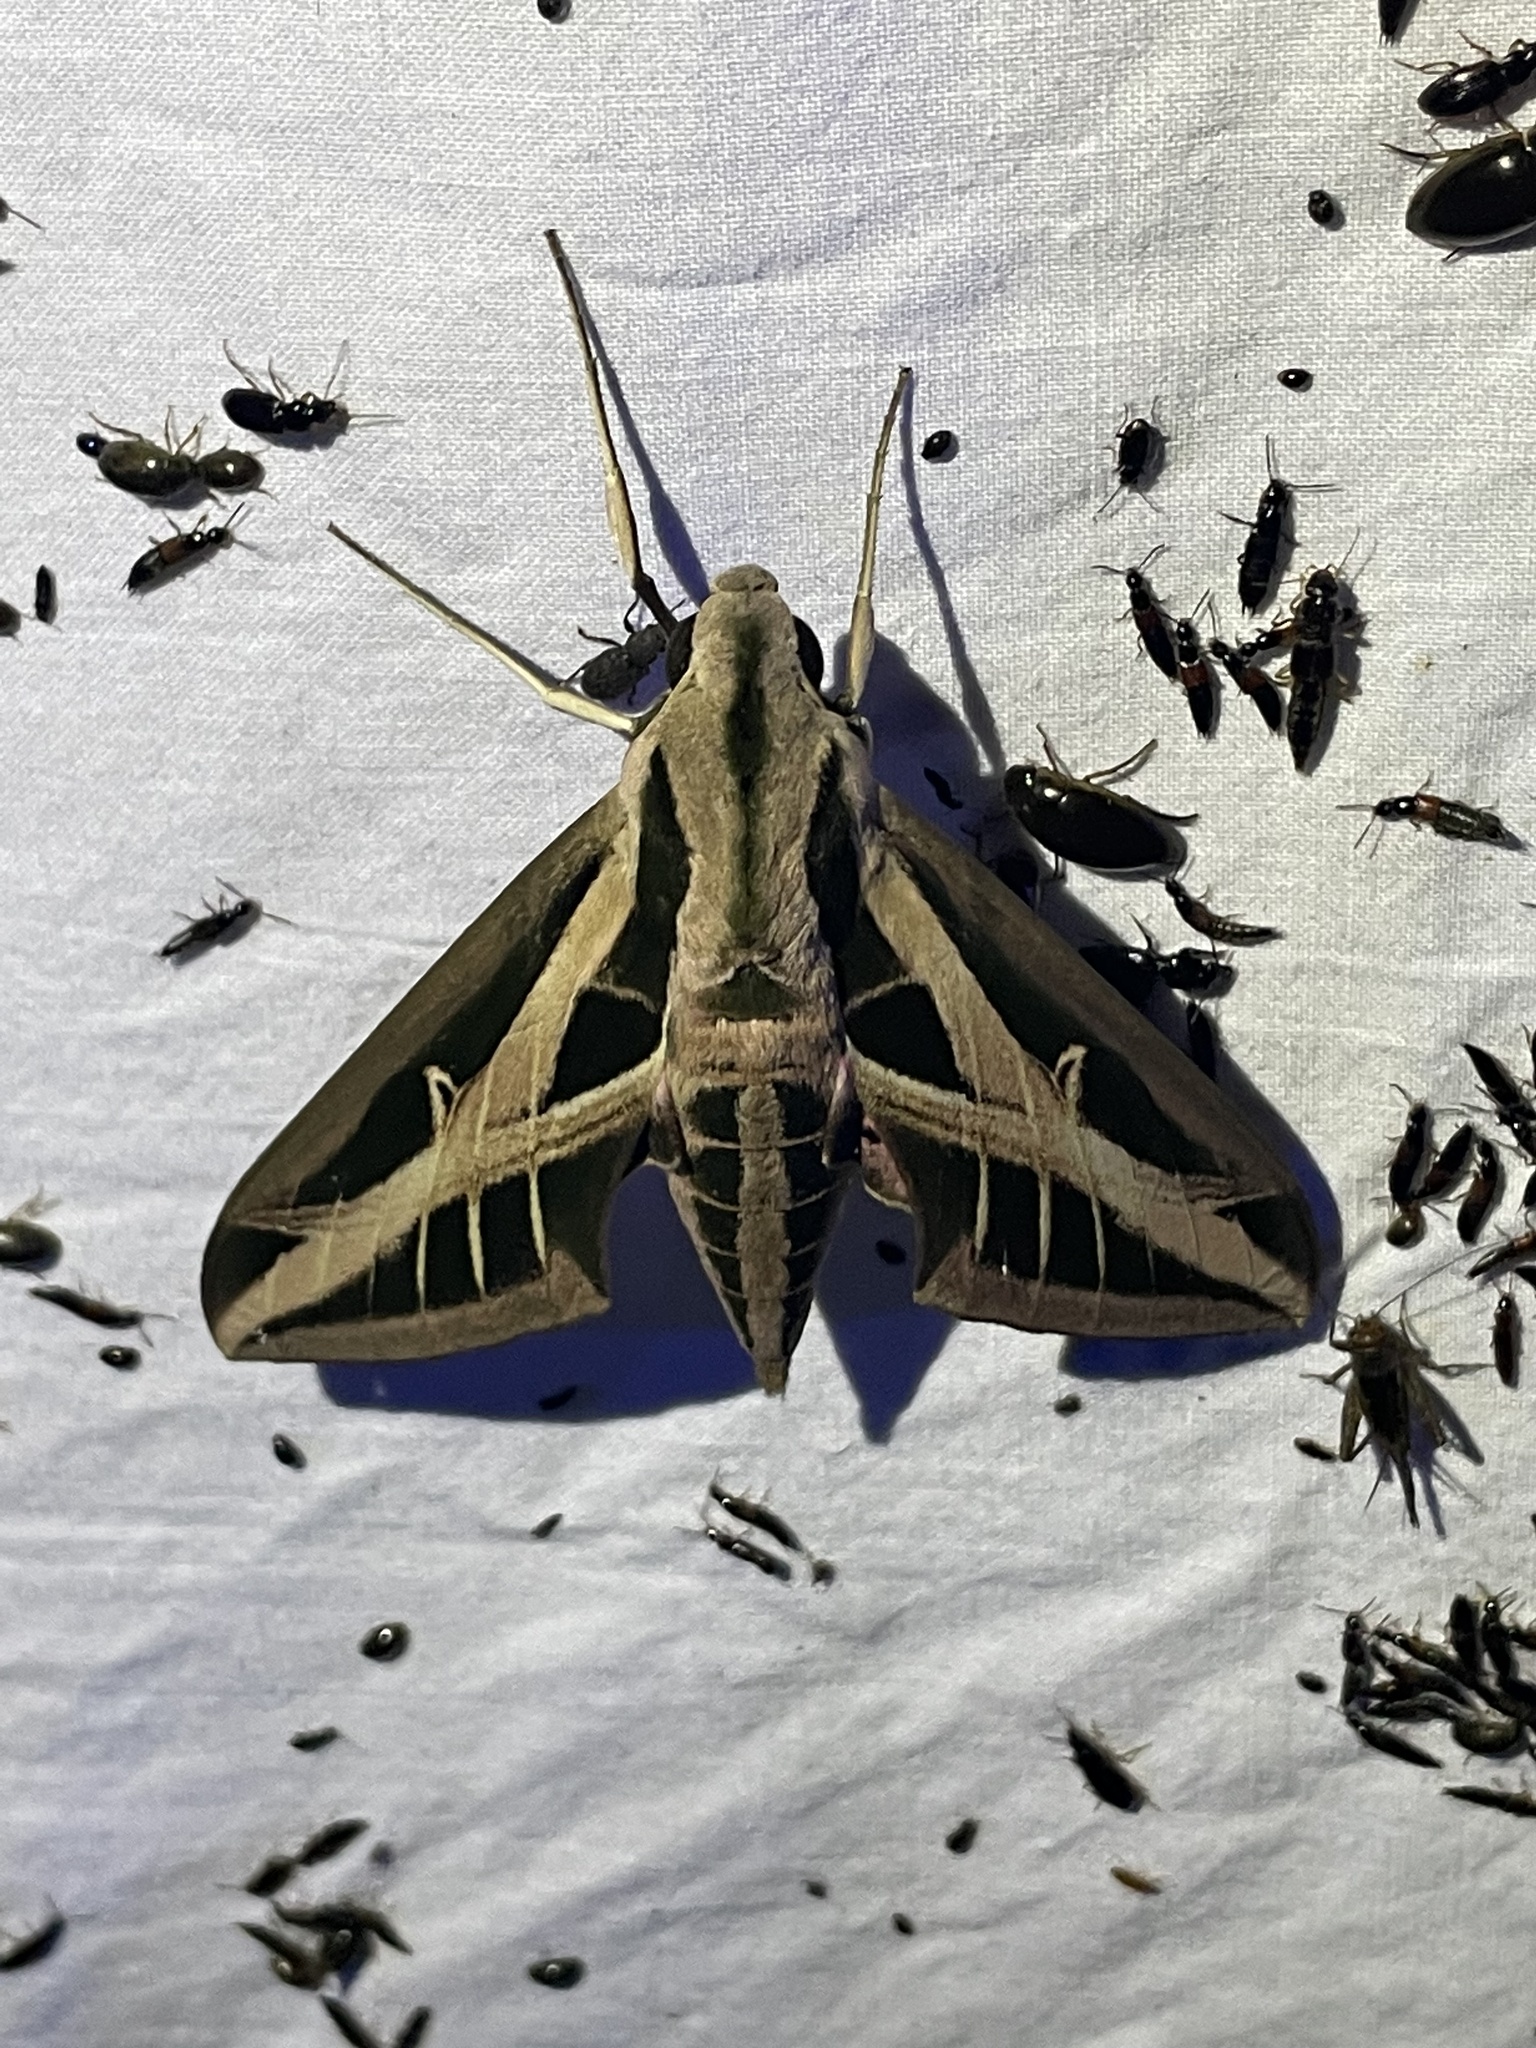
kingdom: Animalia
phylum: Arthropoda
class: Insecta
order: Lepidoptera
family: Sphingidae
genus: Eumorpha
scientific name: Eumorpha fasciatus
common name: Banded sphinx
